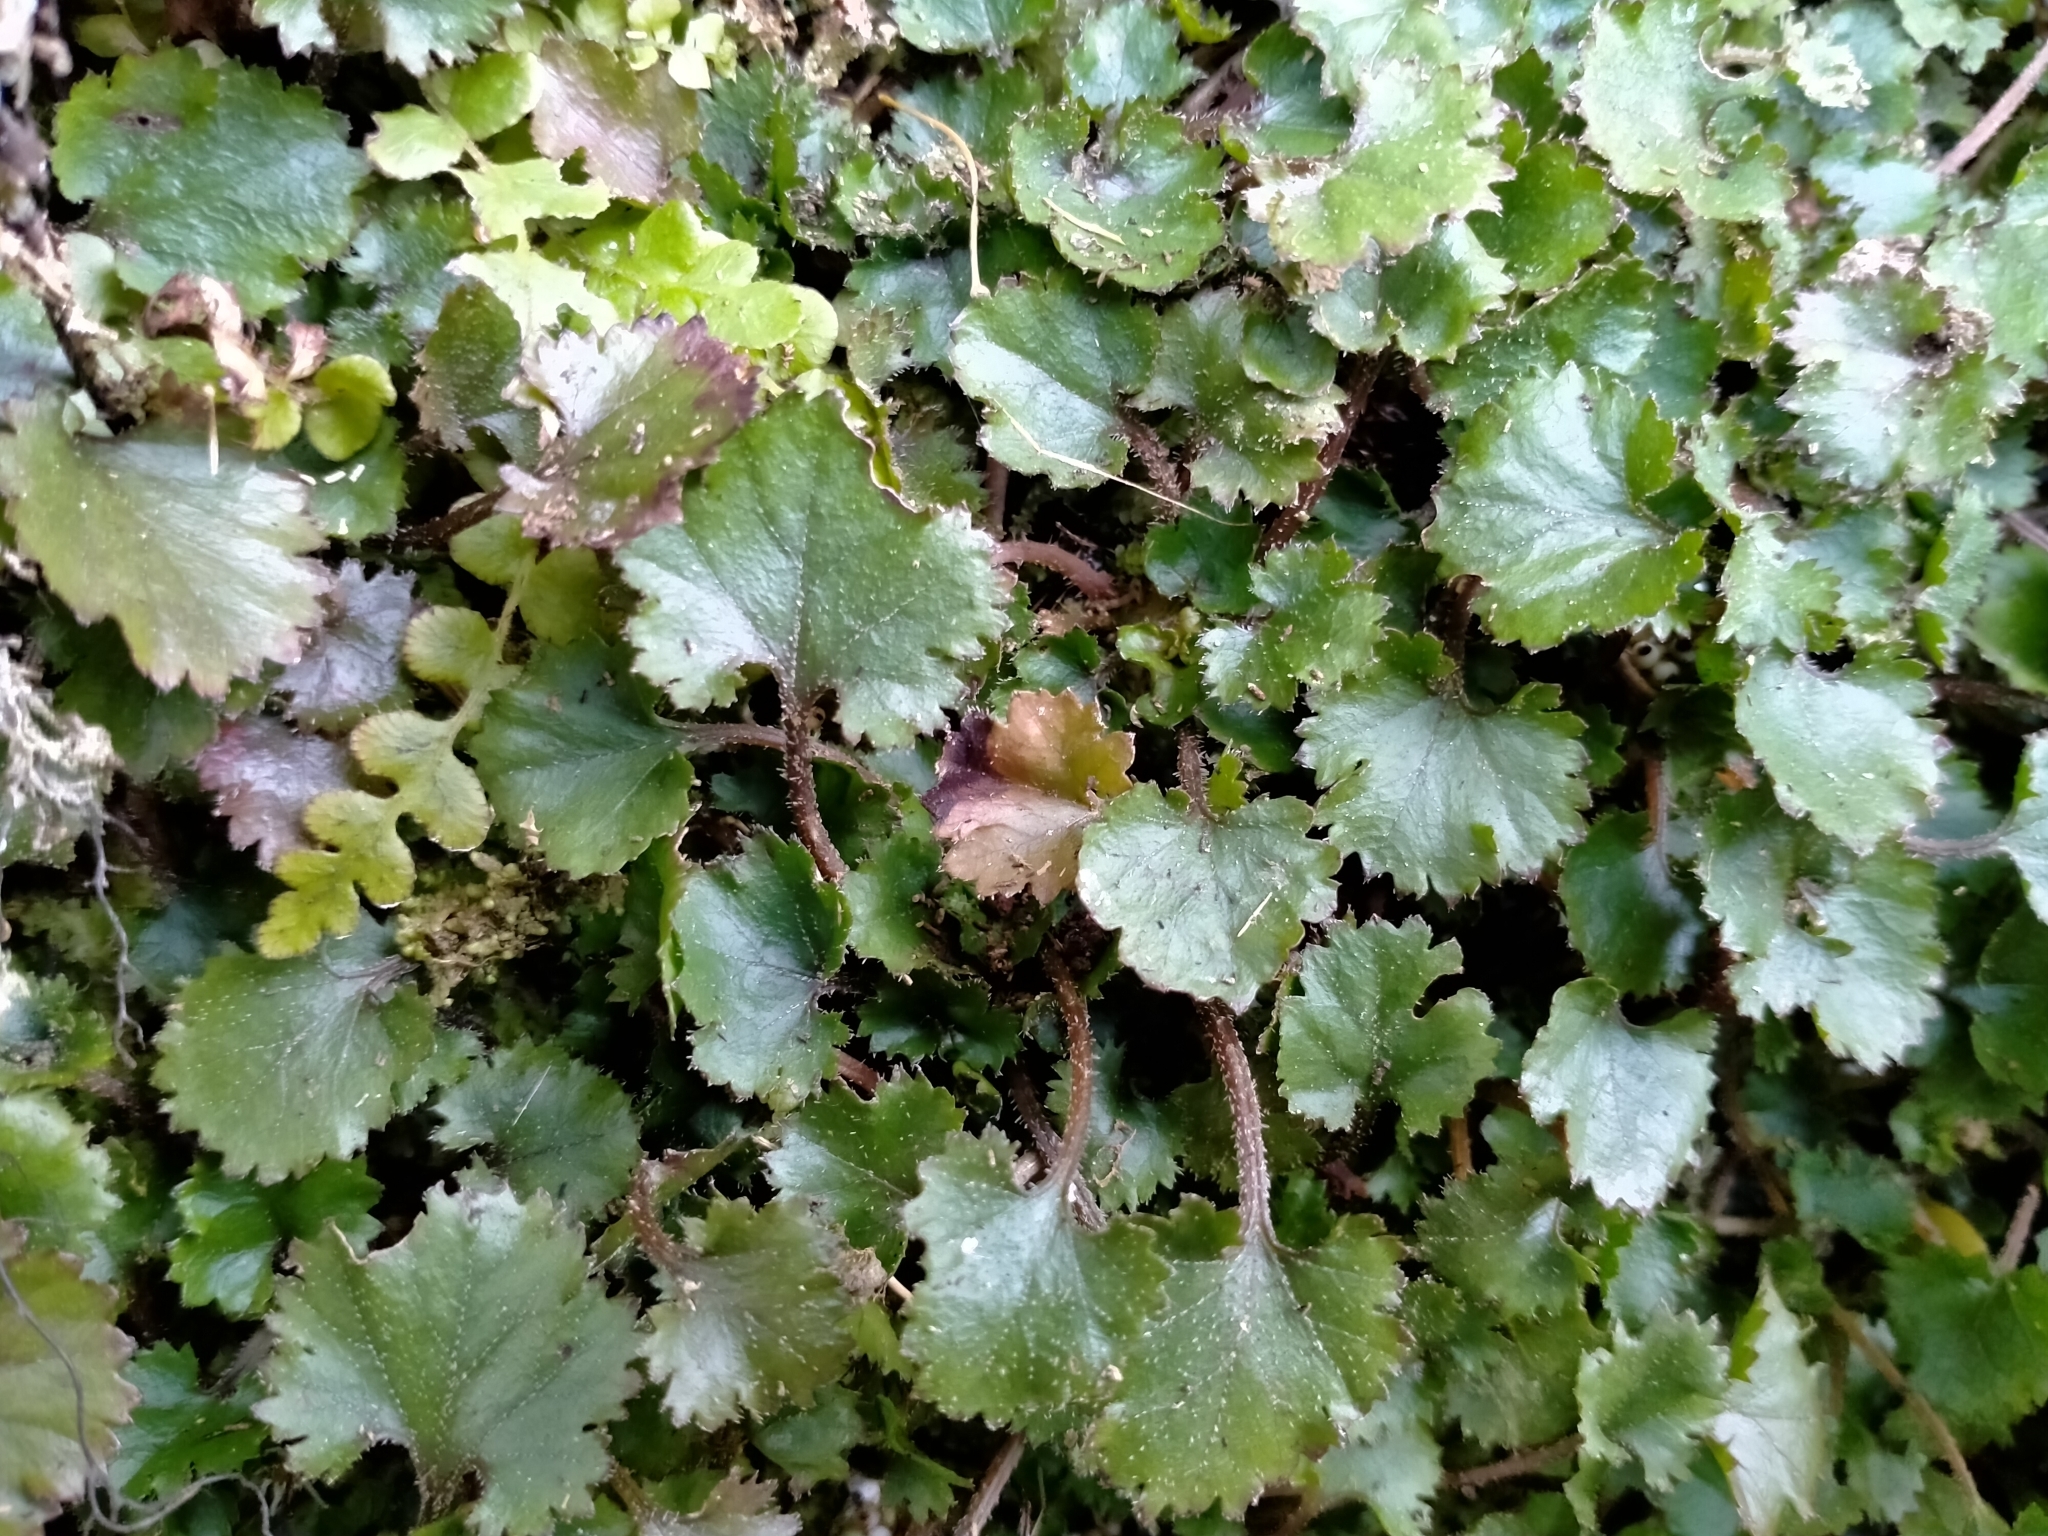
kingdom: Plantae
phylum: Tracheophyta
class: Magnoliopsida
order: Gunnerales
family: Gunneraceae
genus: Gunnera
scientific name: Gunnera monoica
